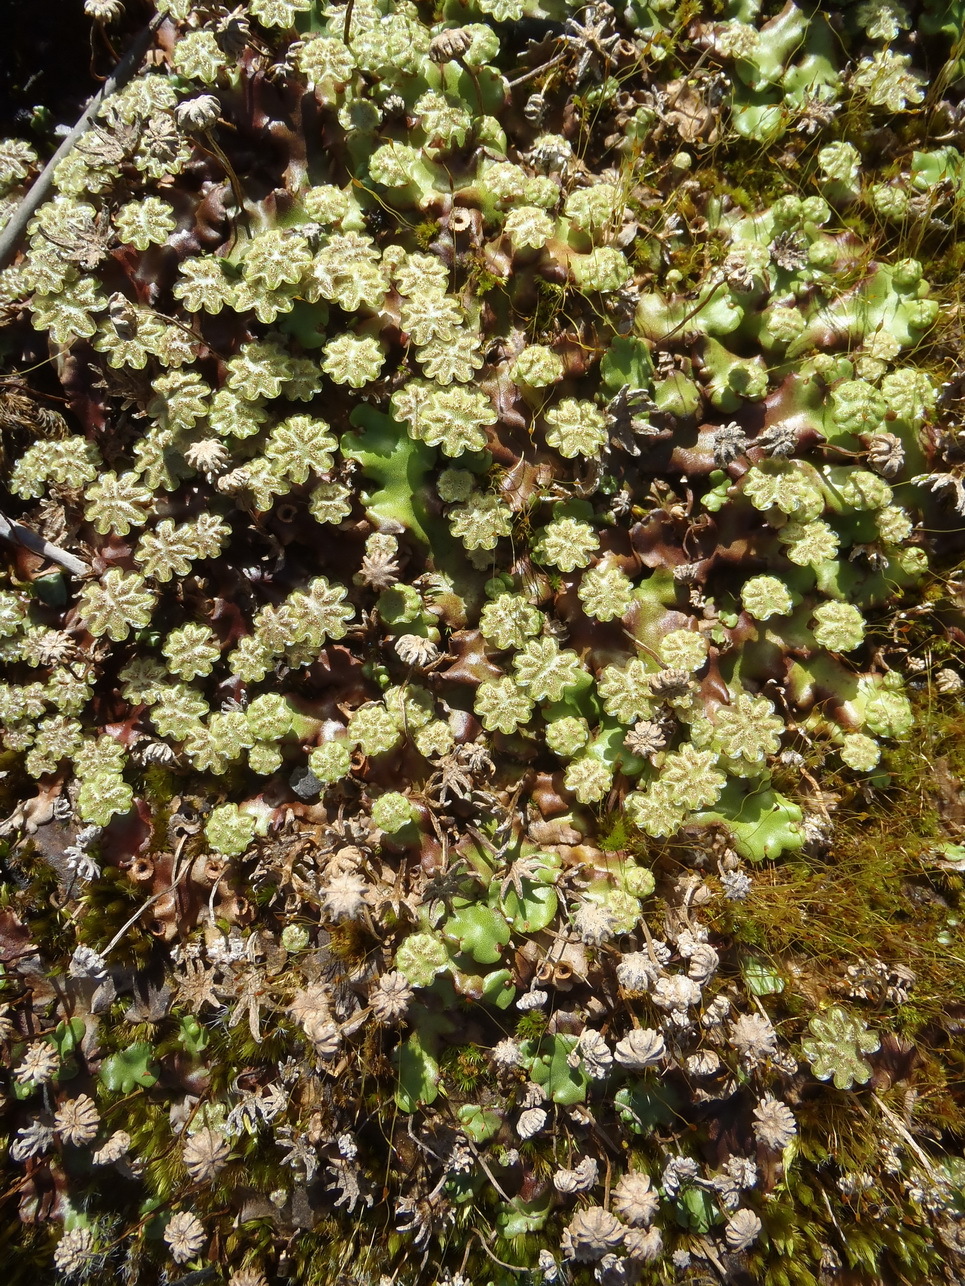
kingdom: Plantae
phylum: Marchantiophyta
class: Marchantiopsida
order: Marchantiales
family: Marchantiaceae
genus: Marchantia
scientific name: Marchantia berteroana
